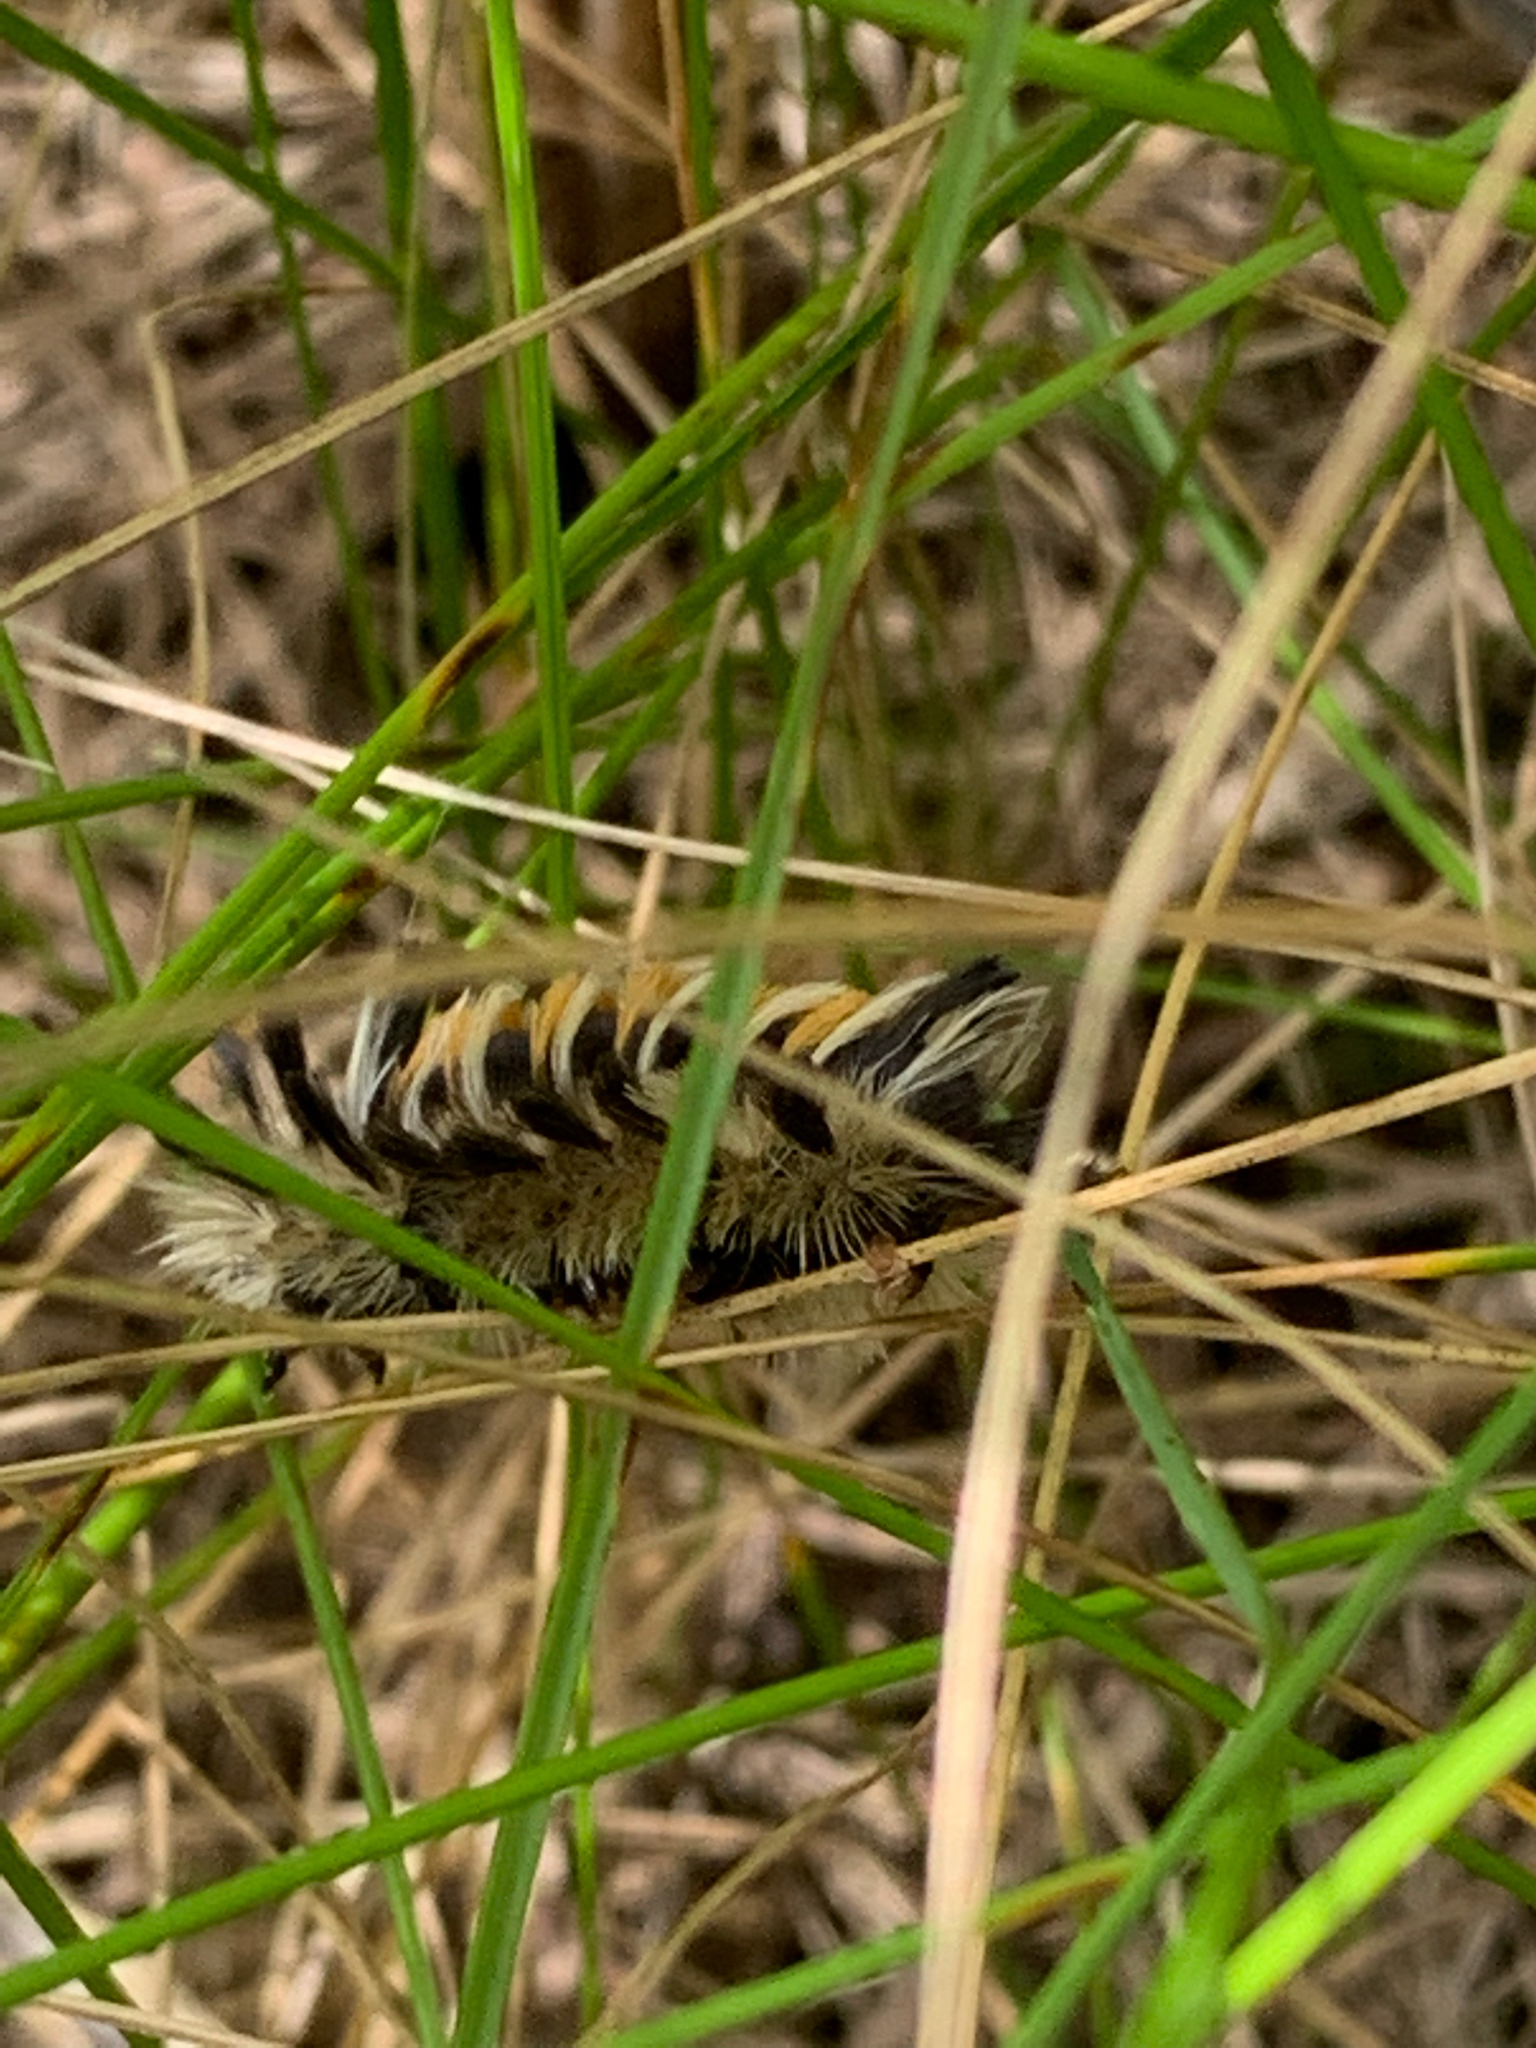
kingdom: Animalia
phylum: Arthropoda
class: Insecta
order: Lepidoptera
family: Erebidae
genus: Euchaetes
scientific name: Euchaetes egle
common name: Milkweed tussock moth
